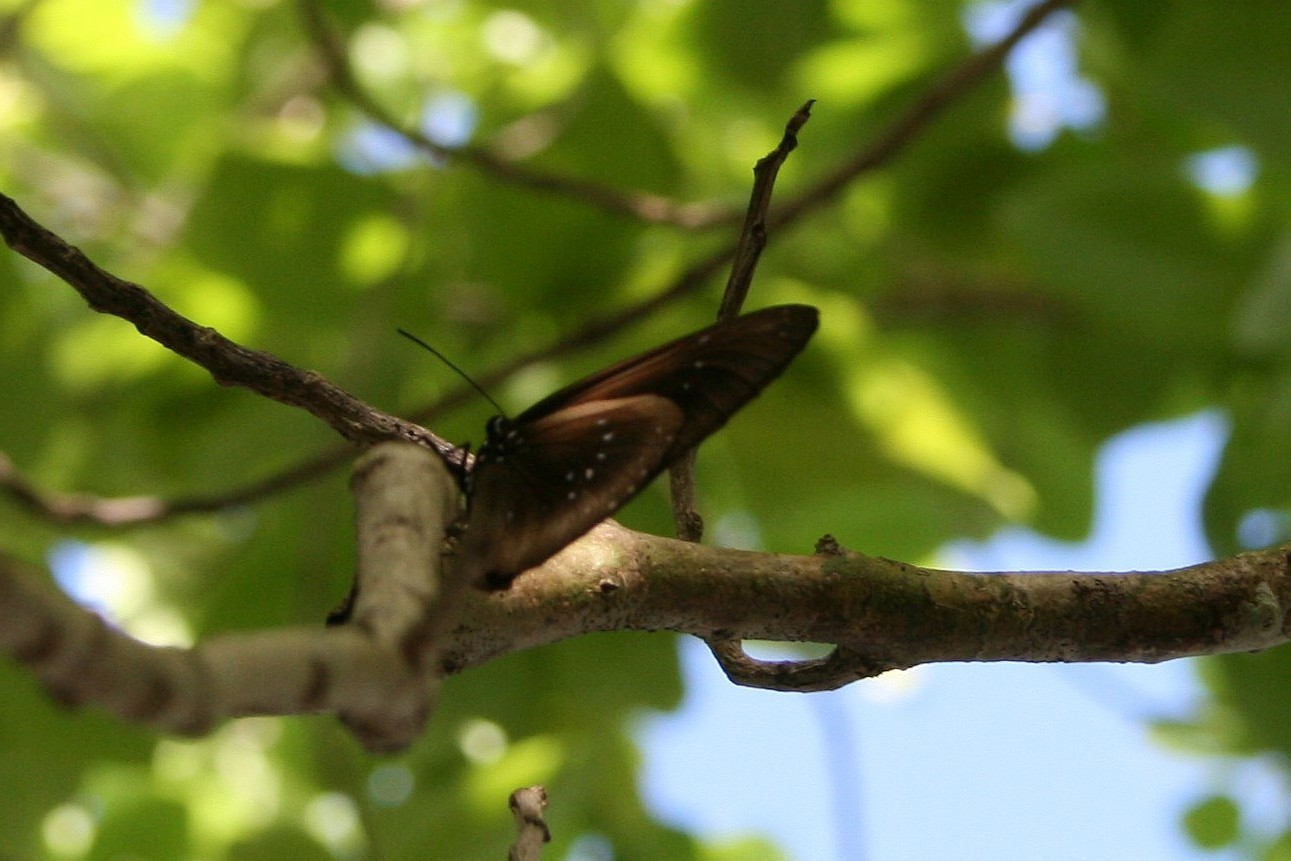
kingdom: Animalia
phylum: Arthropoda
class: Insecta
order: Lepidoptera
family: Nymphalidae
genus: Euploea
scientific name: Euploea boisduvalii
